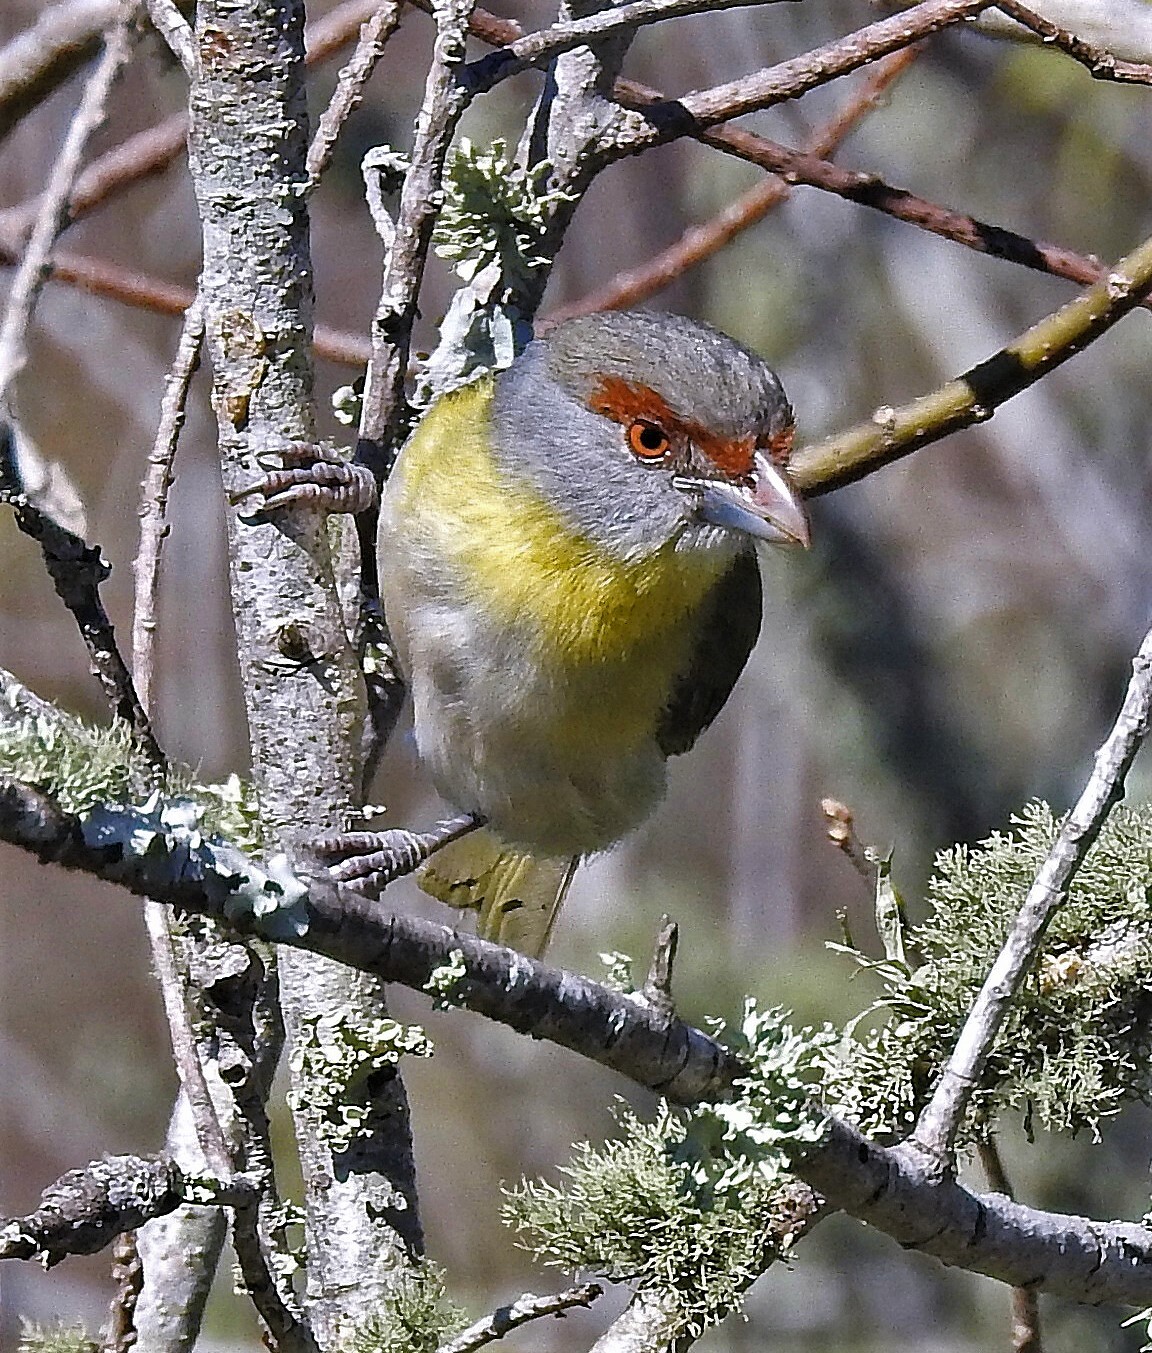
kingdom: Animalia
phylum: Chordata
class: Aves
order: Passeriformes
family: Vireonidae
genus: Cyclarhis
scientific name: Cyclarhis gujanensis
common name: Rufous-browed peppershrike
